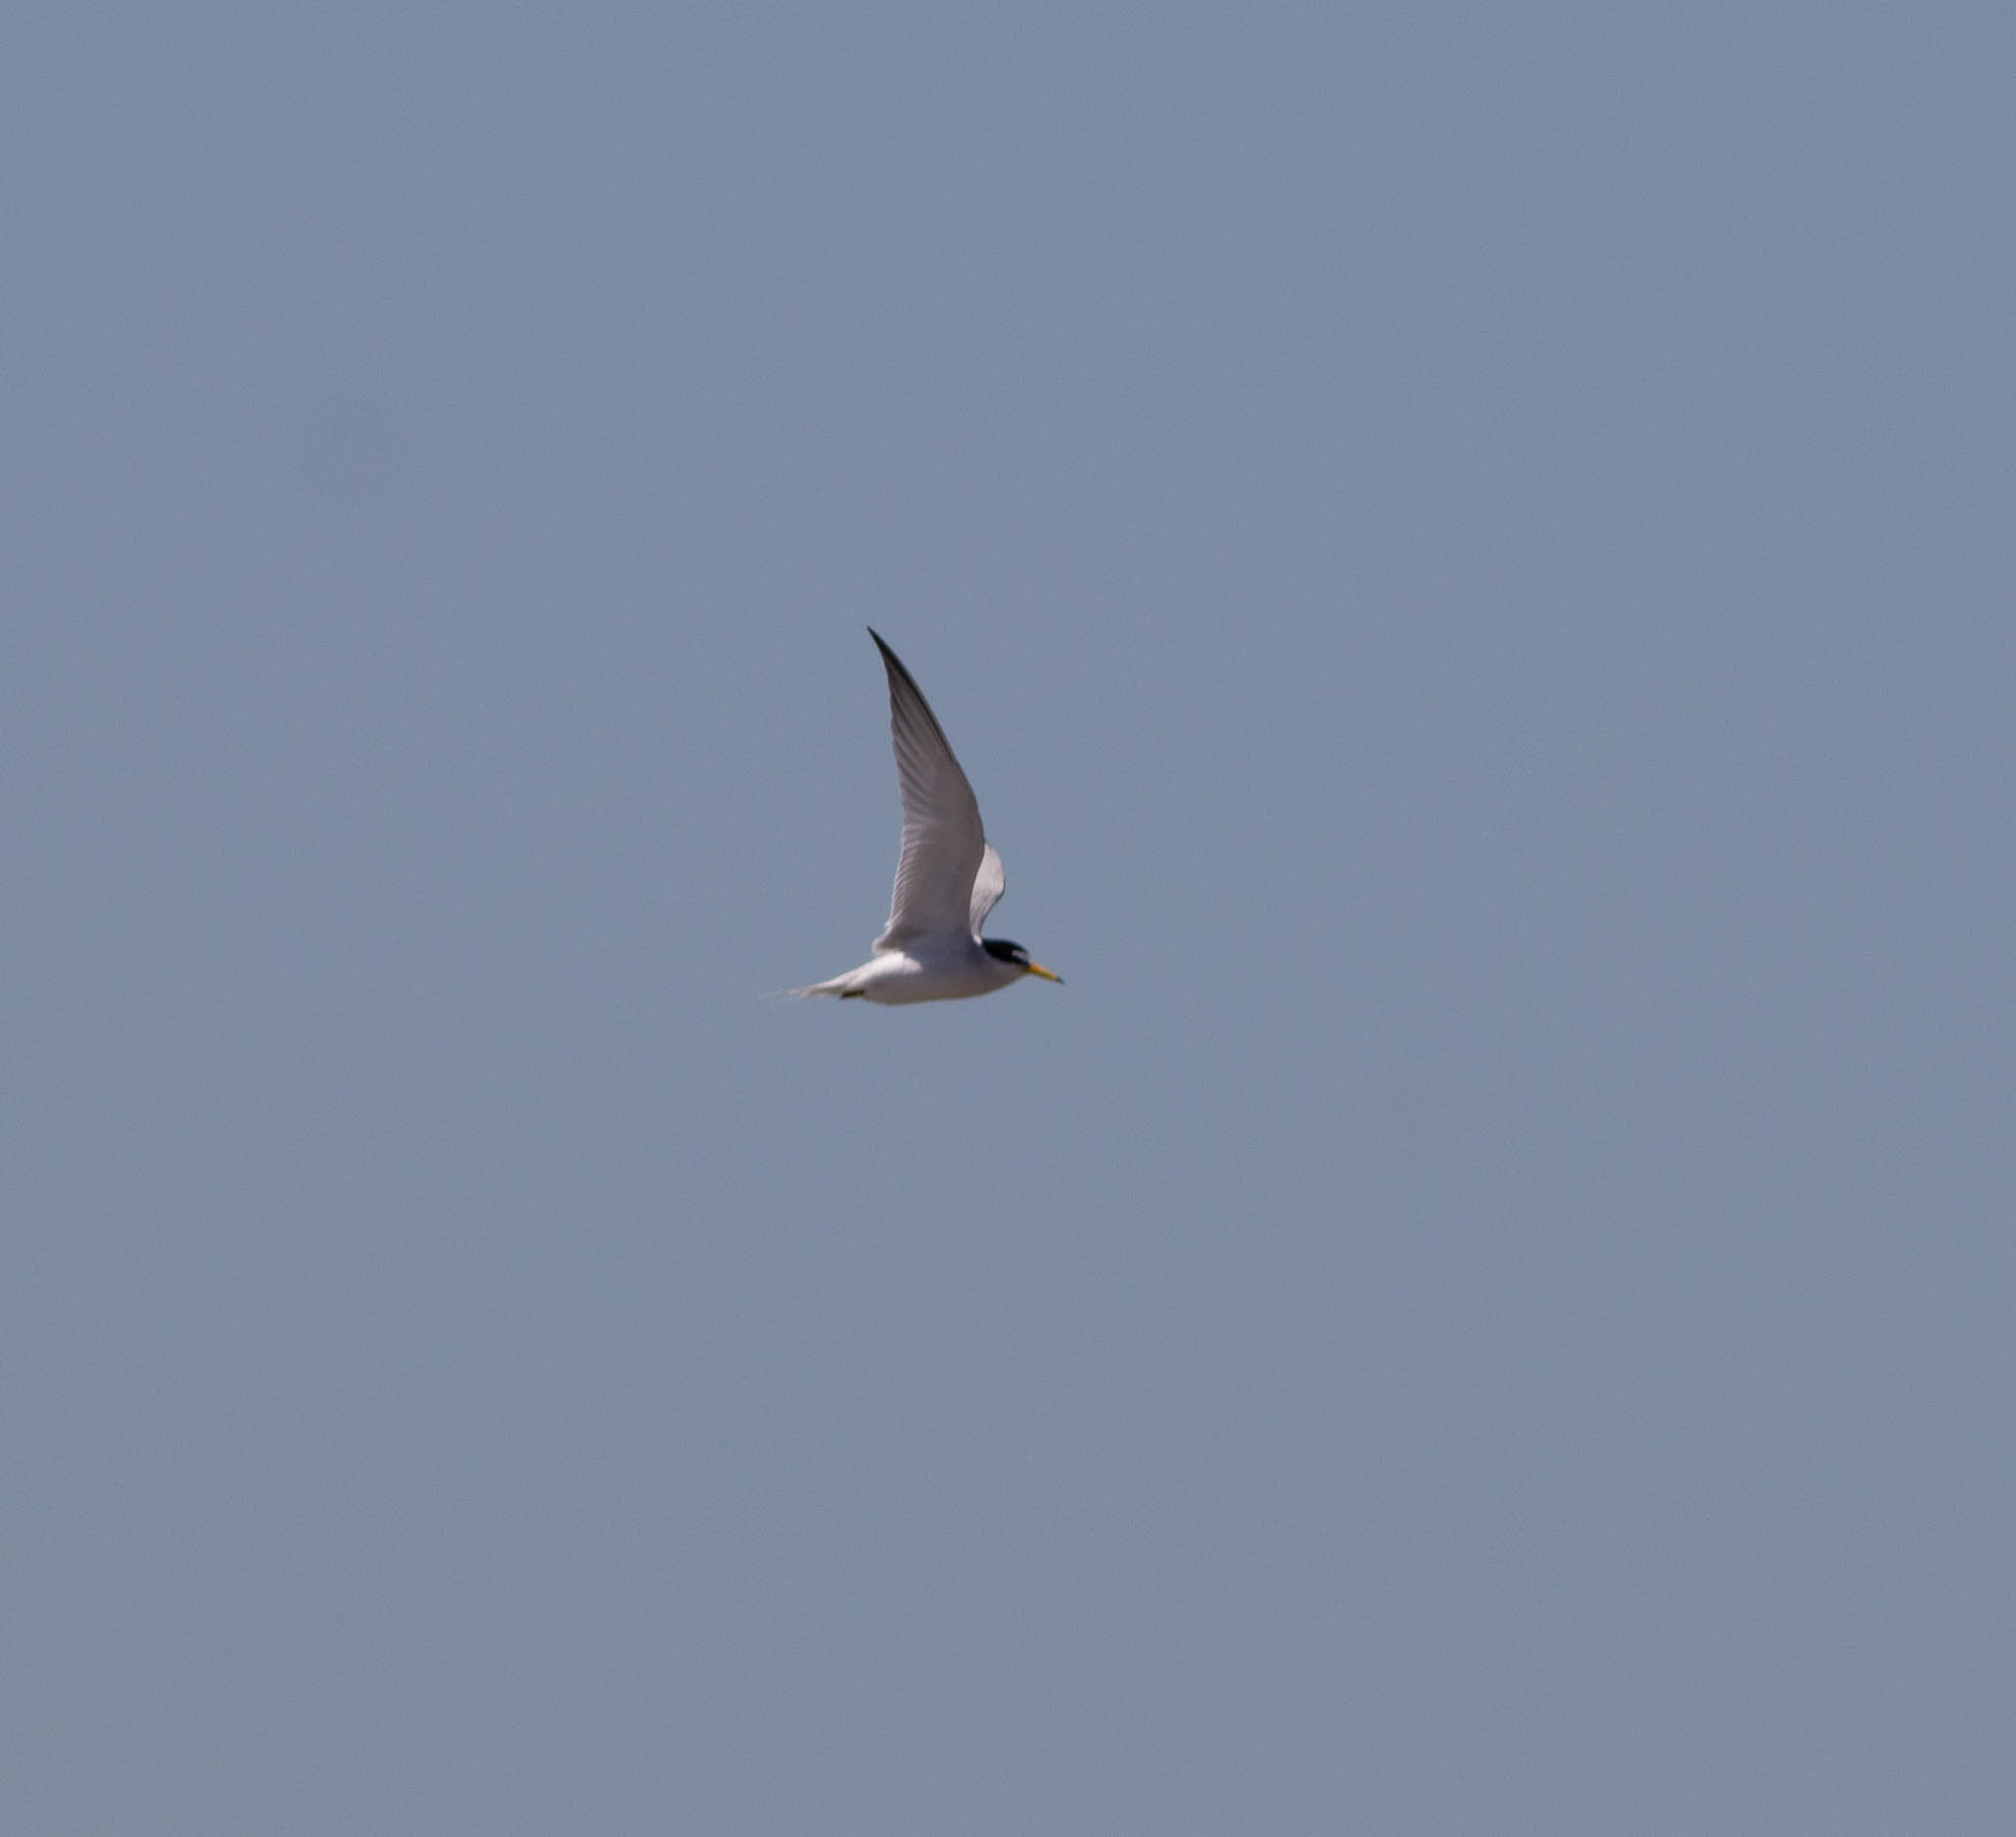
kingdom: Animalia
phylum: Chordata
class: Aves
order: Charadriiformes
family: Laridae
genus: Sternula
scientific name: Sternula antillarum
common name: Least tern
